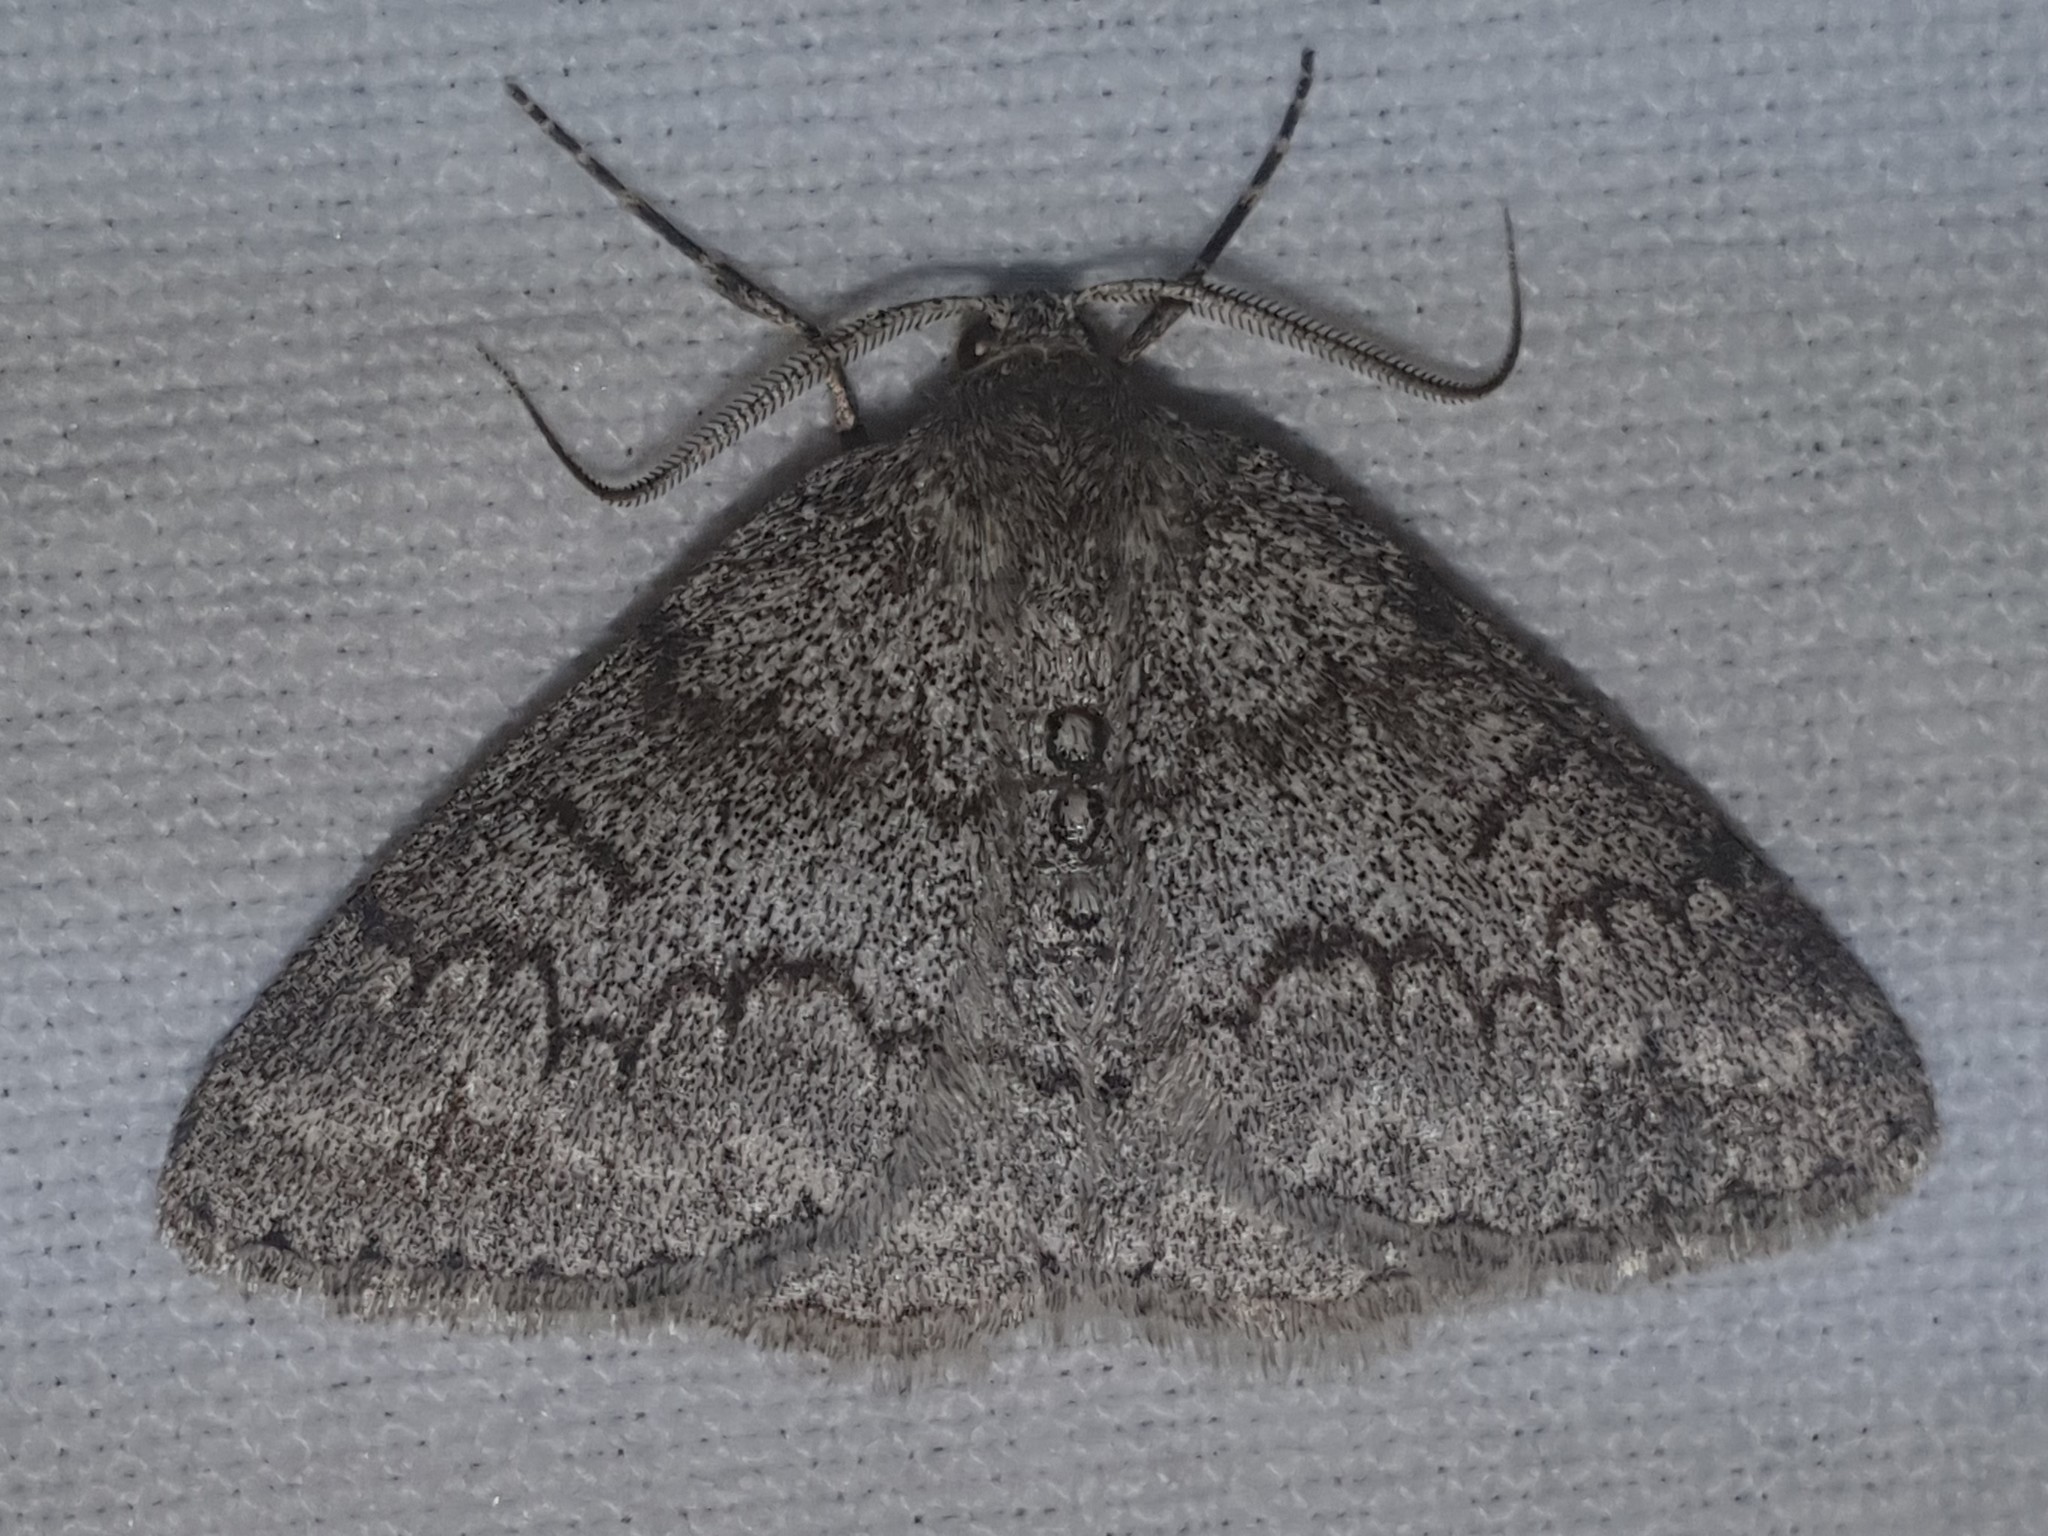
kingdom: Animalia
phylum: Arthropoda
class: Insecta
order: Lepidoptera
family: Geometridae
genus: Pseudoterpna
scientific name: Pseudoterpna coronillaria
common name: Jersey emerald
